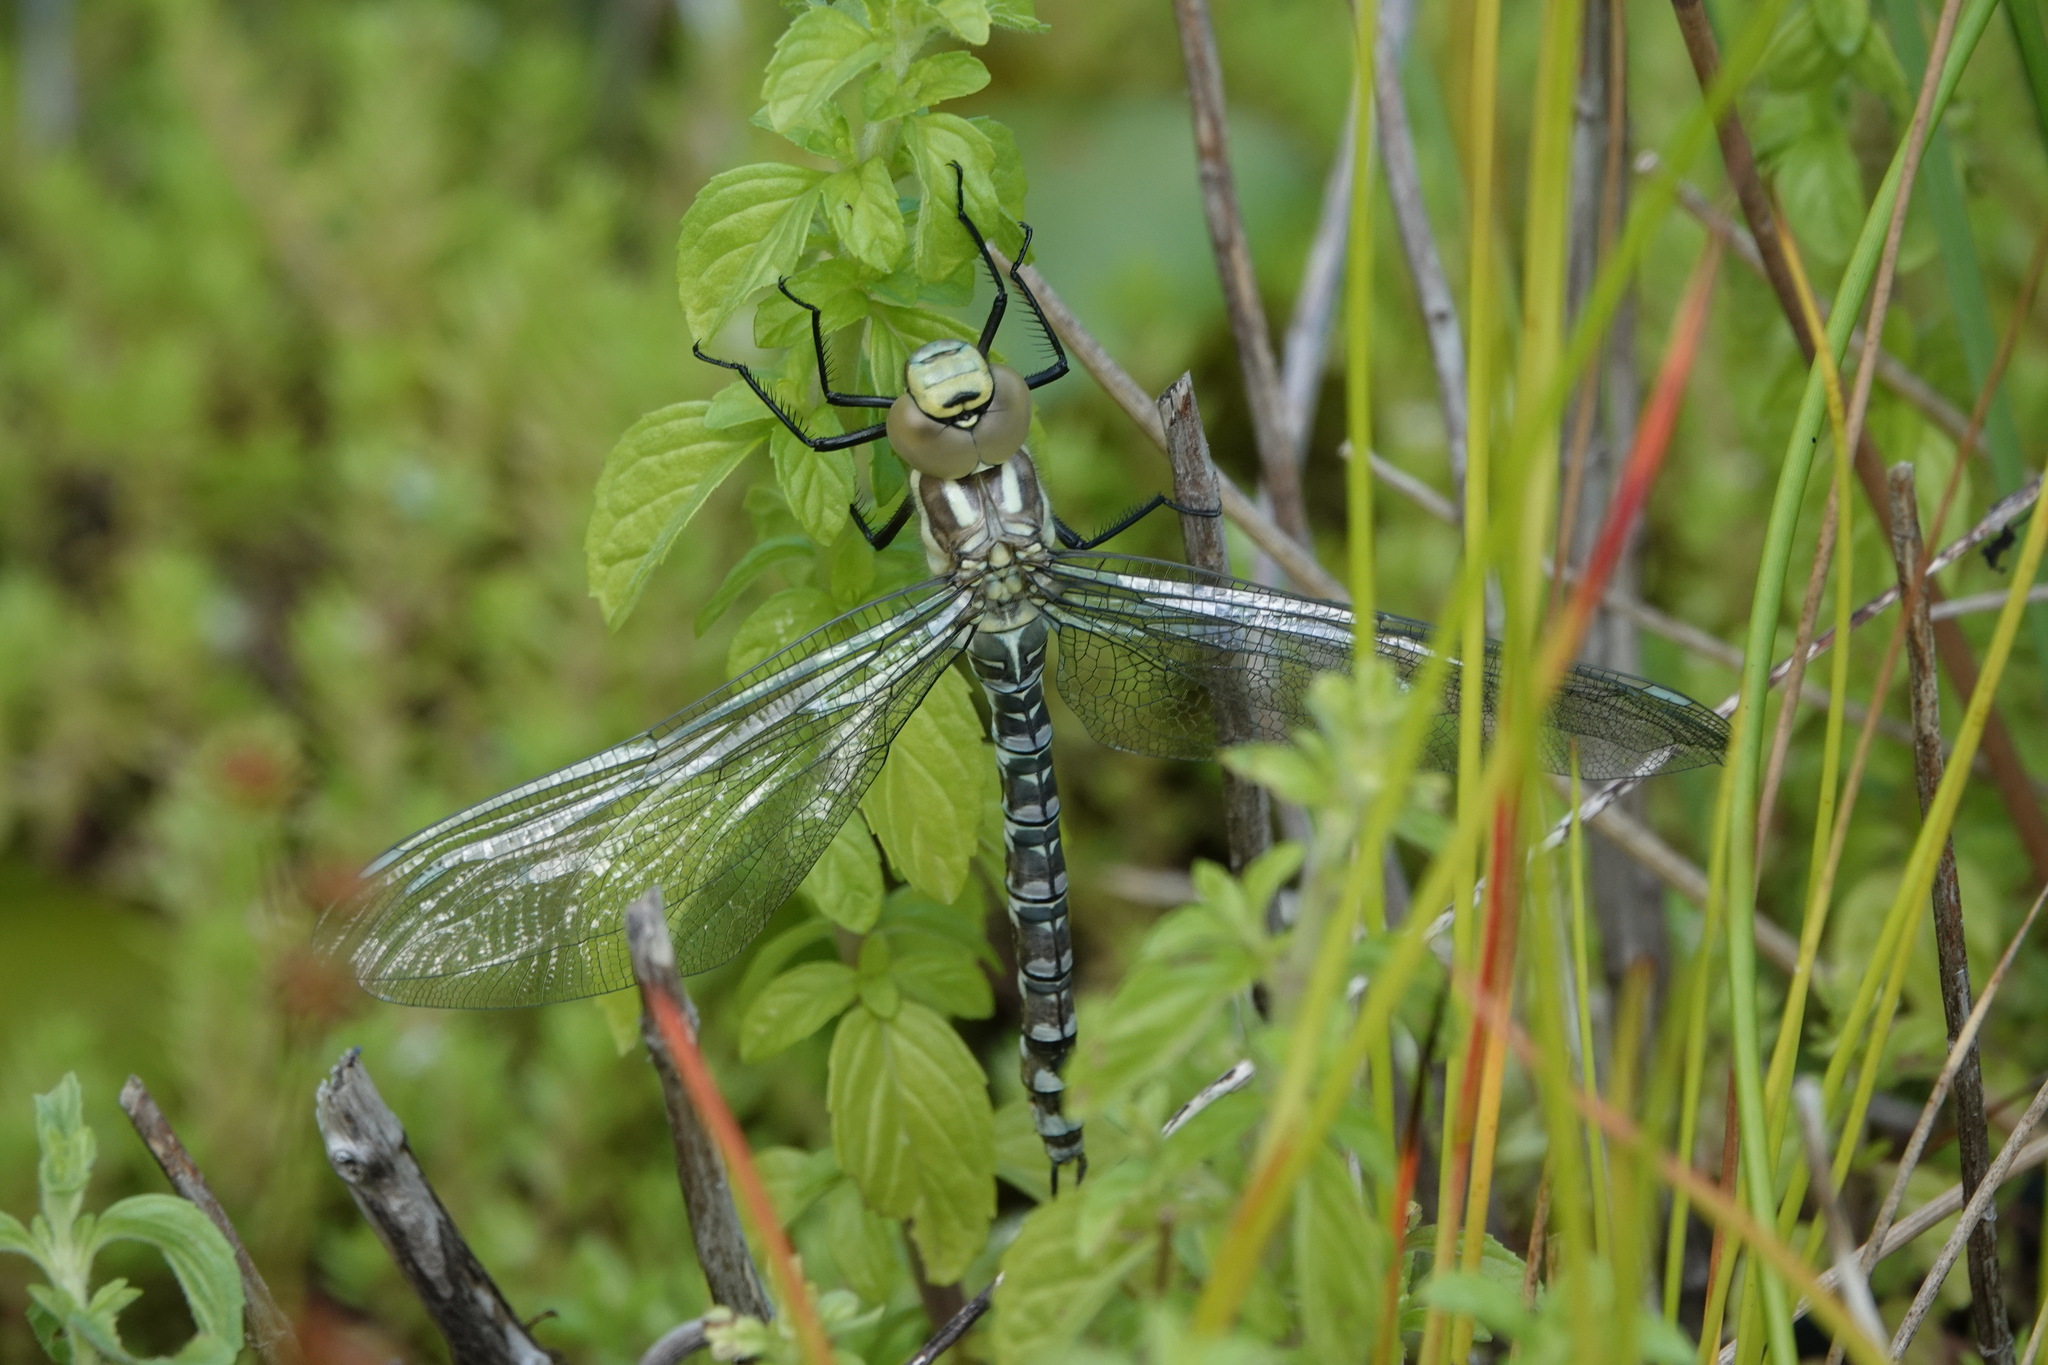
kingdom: Animalia
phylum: Arthropoda
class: Insecta
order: Odonata
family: Aeshnidae
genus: Aeshna
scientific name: Aeshna cyanea
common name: Southern hawker
